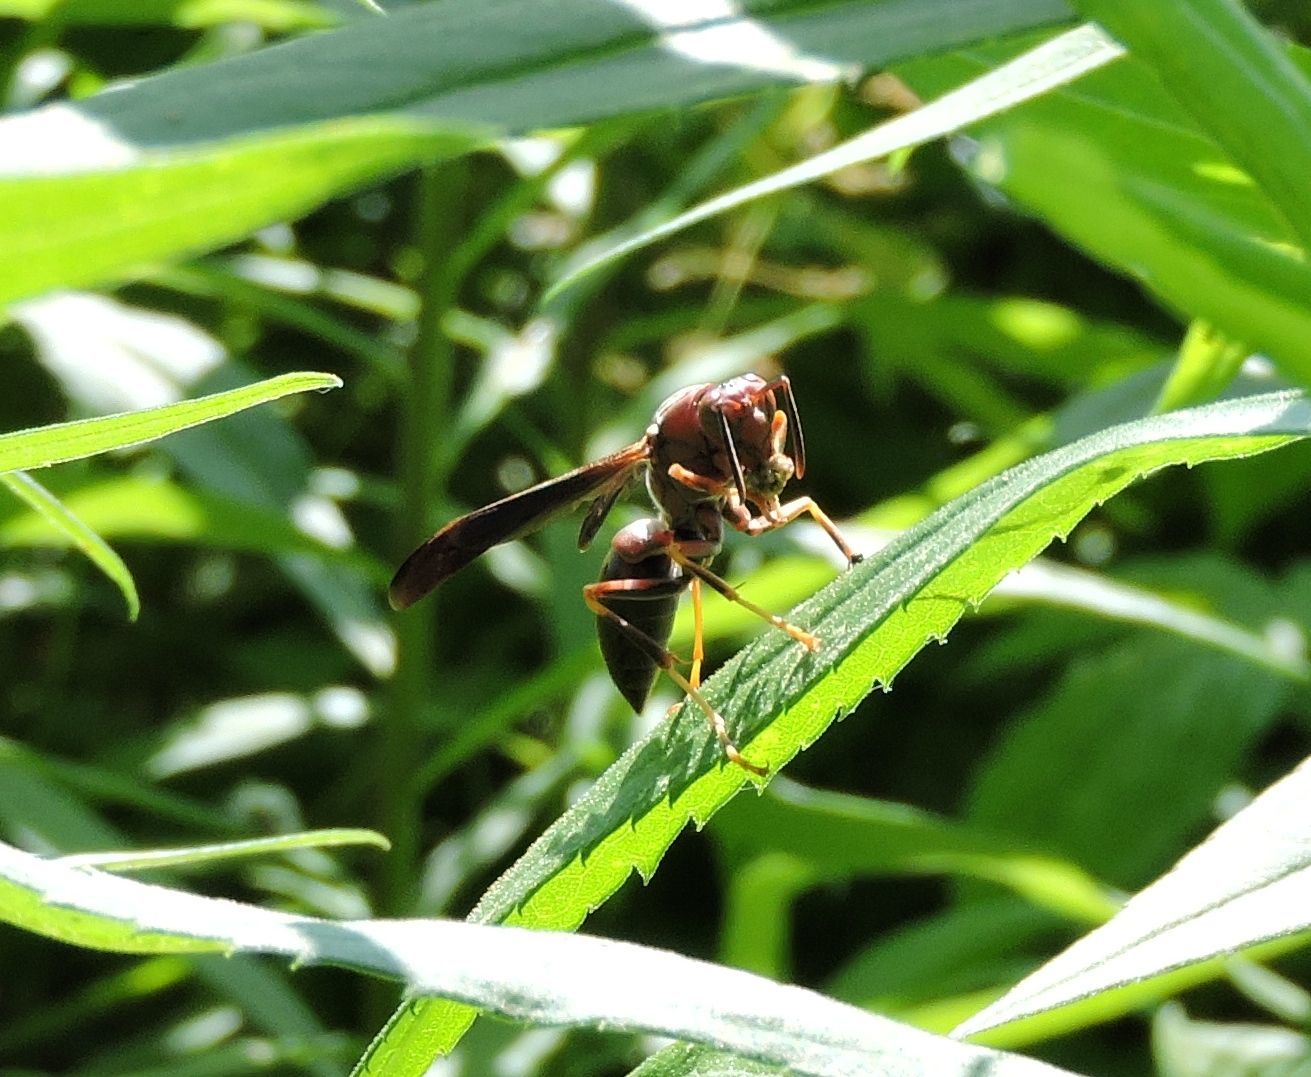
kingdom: Animalia
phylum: Arthropoda
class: Insecta
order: Hymenoptera
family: Eumenidae
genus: Polistes
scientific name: Polistes metricus
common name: Metric paper wasp
